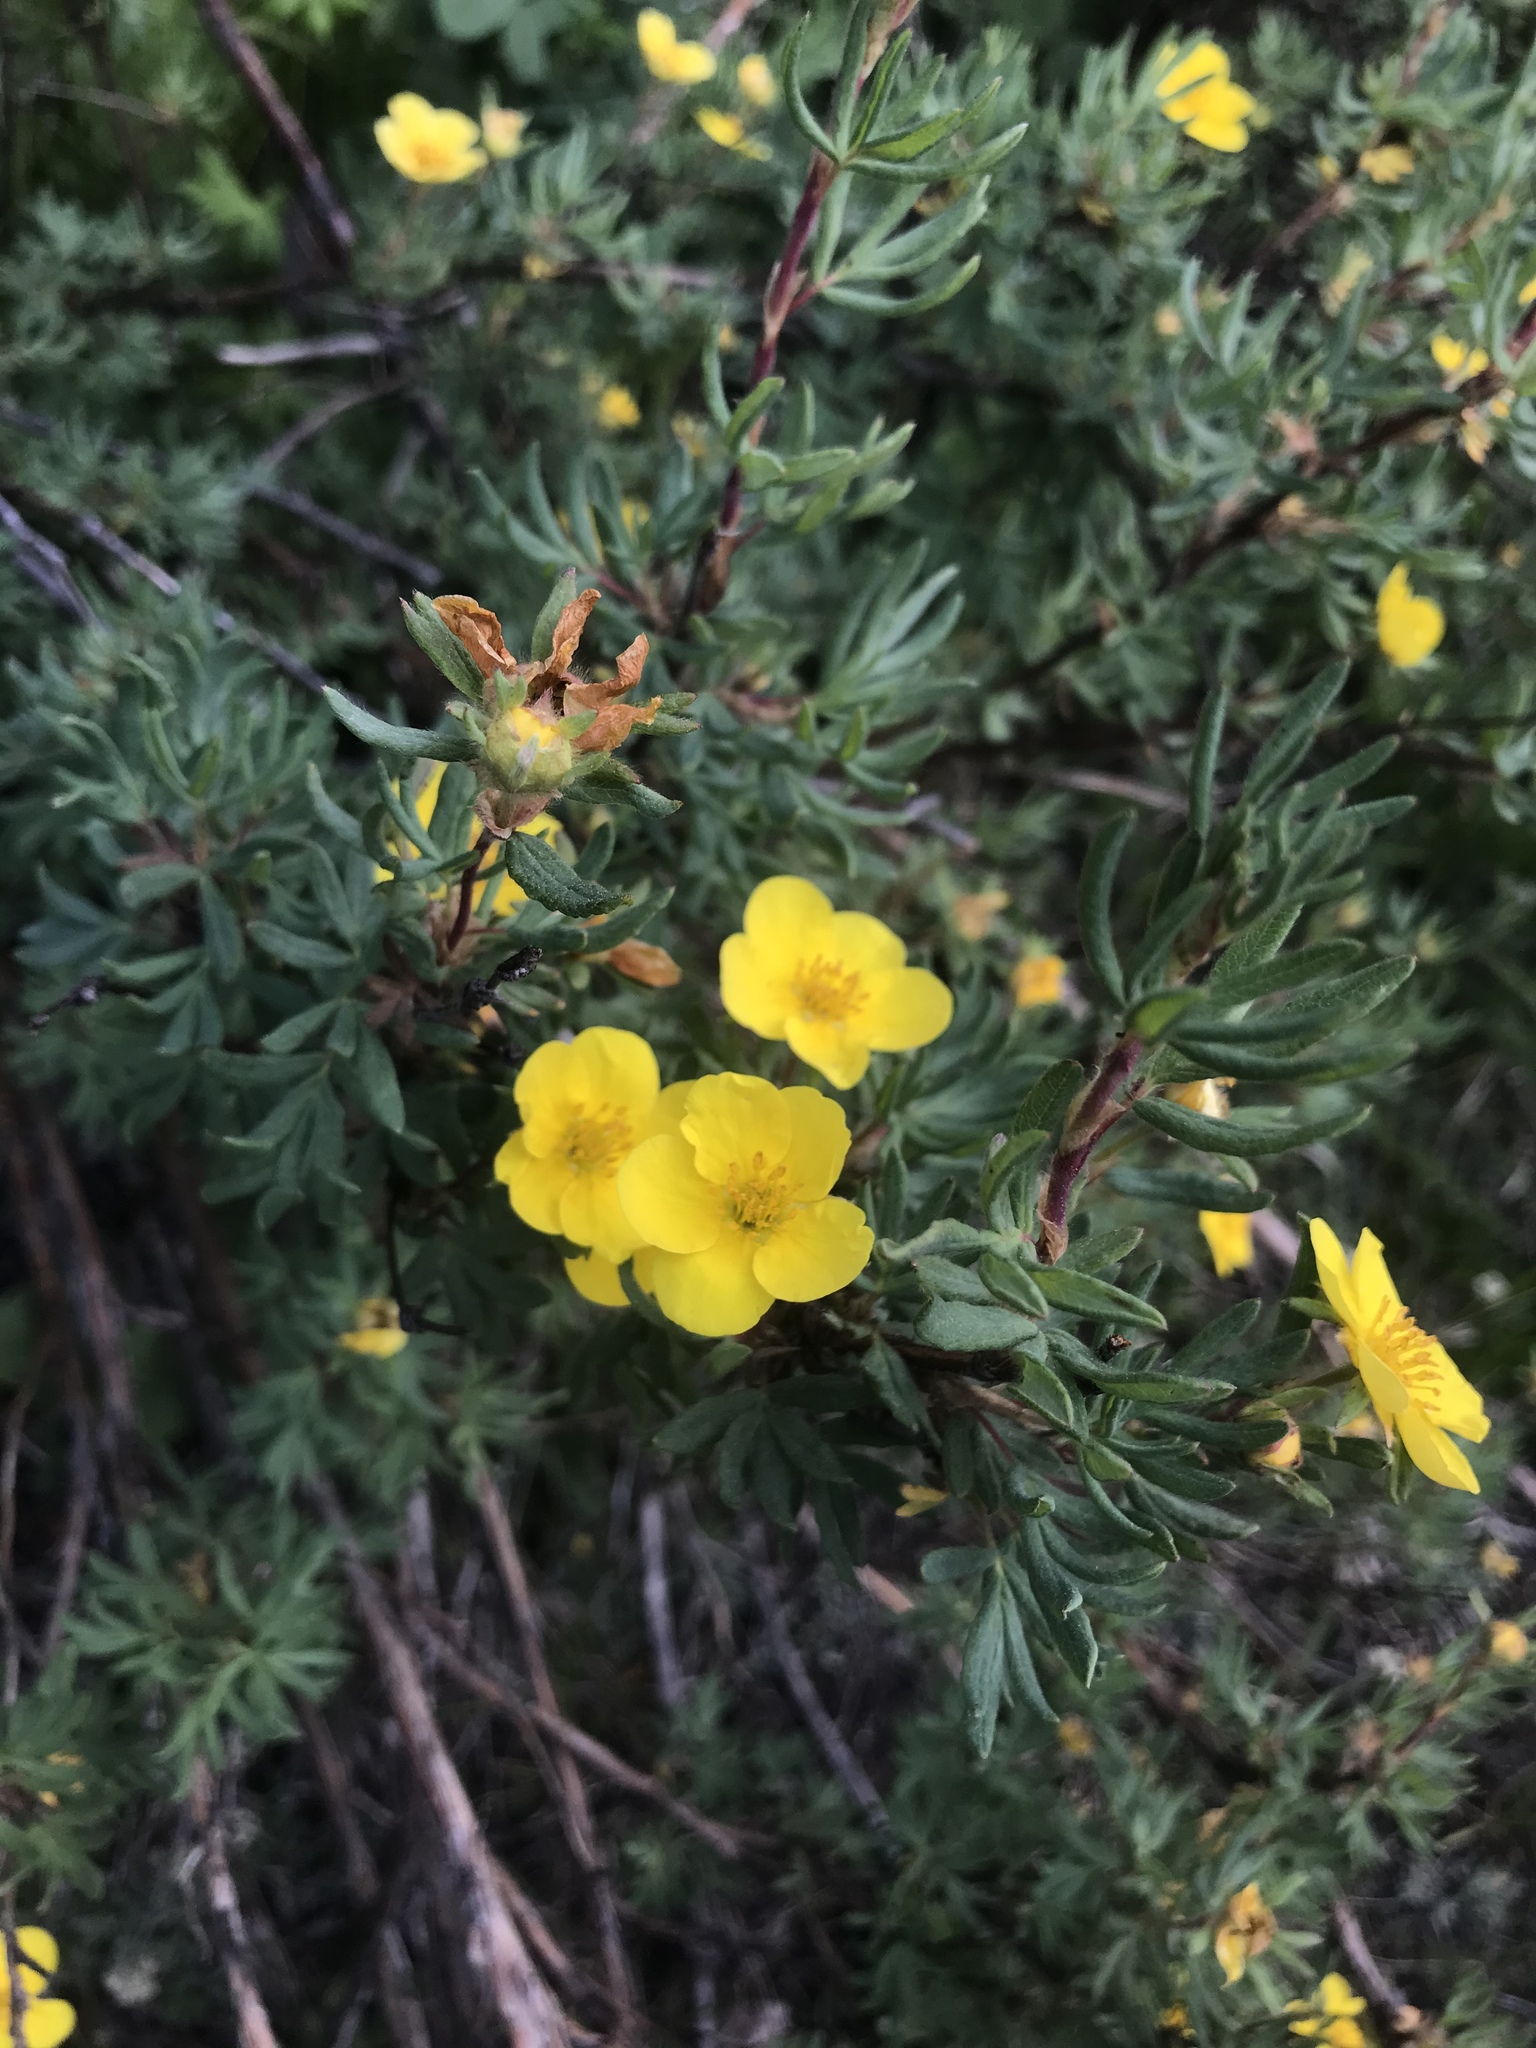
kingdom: Plantae
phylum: Tracheophyta
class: Magnoliopsida
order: Rosales
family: Rosaceae
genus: Dasiphora
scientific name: Dasiphora fruticosa
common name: Shrubby cinquefoil
